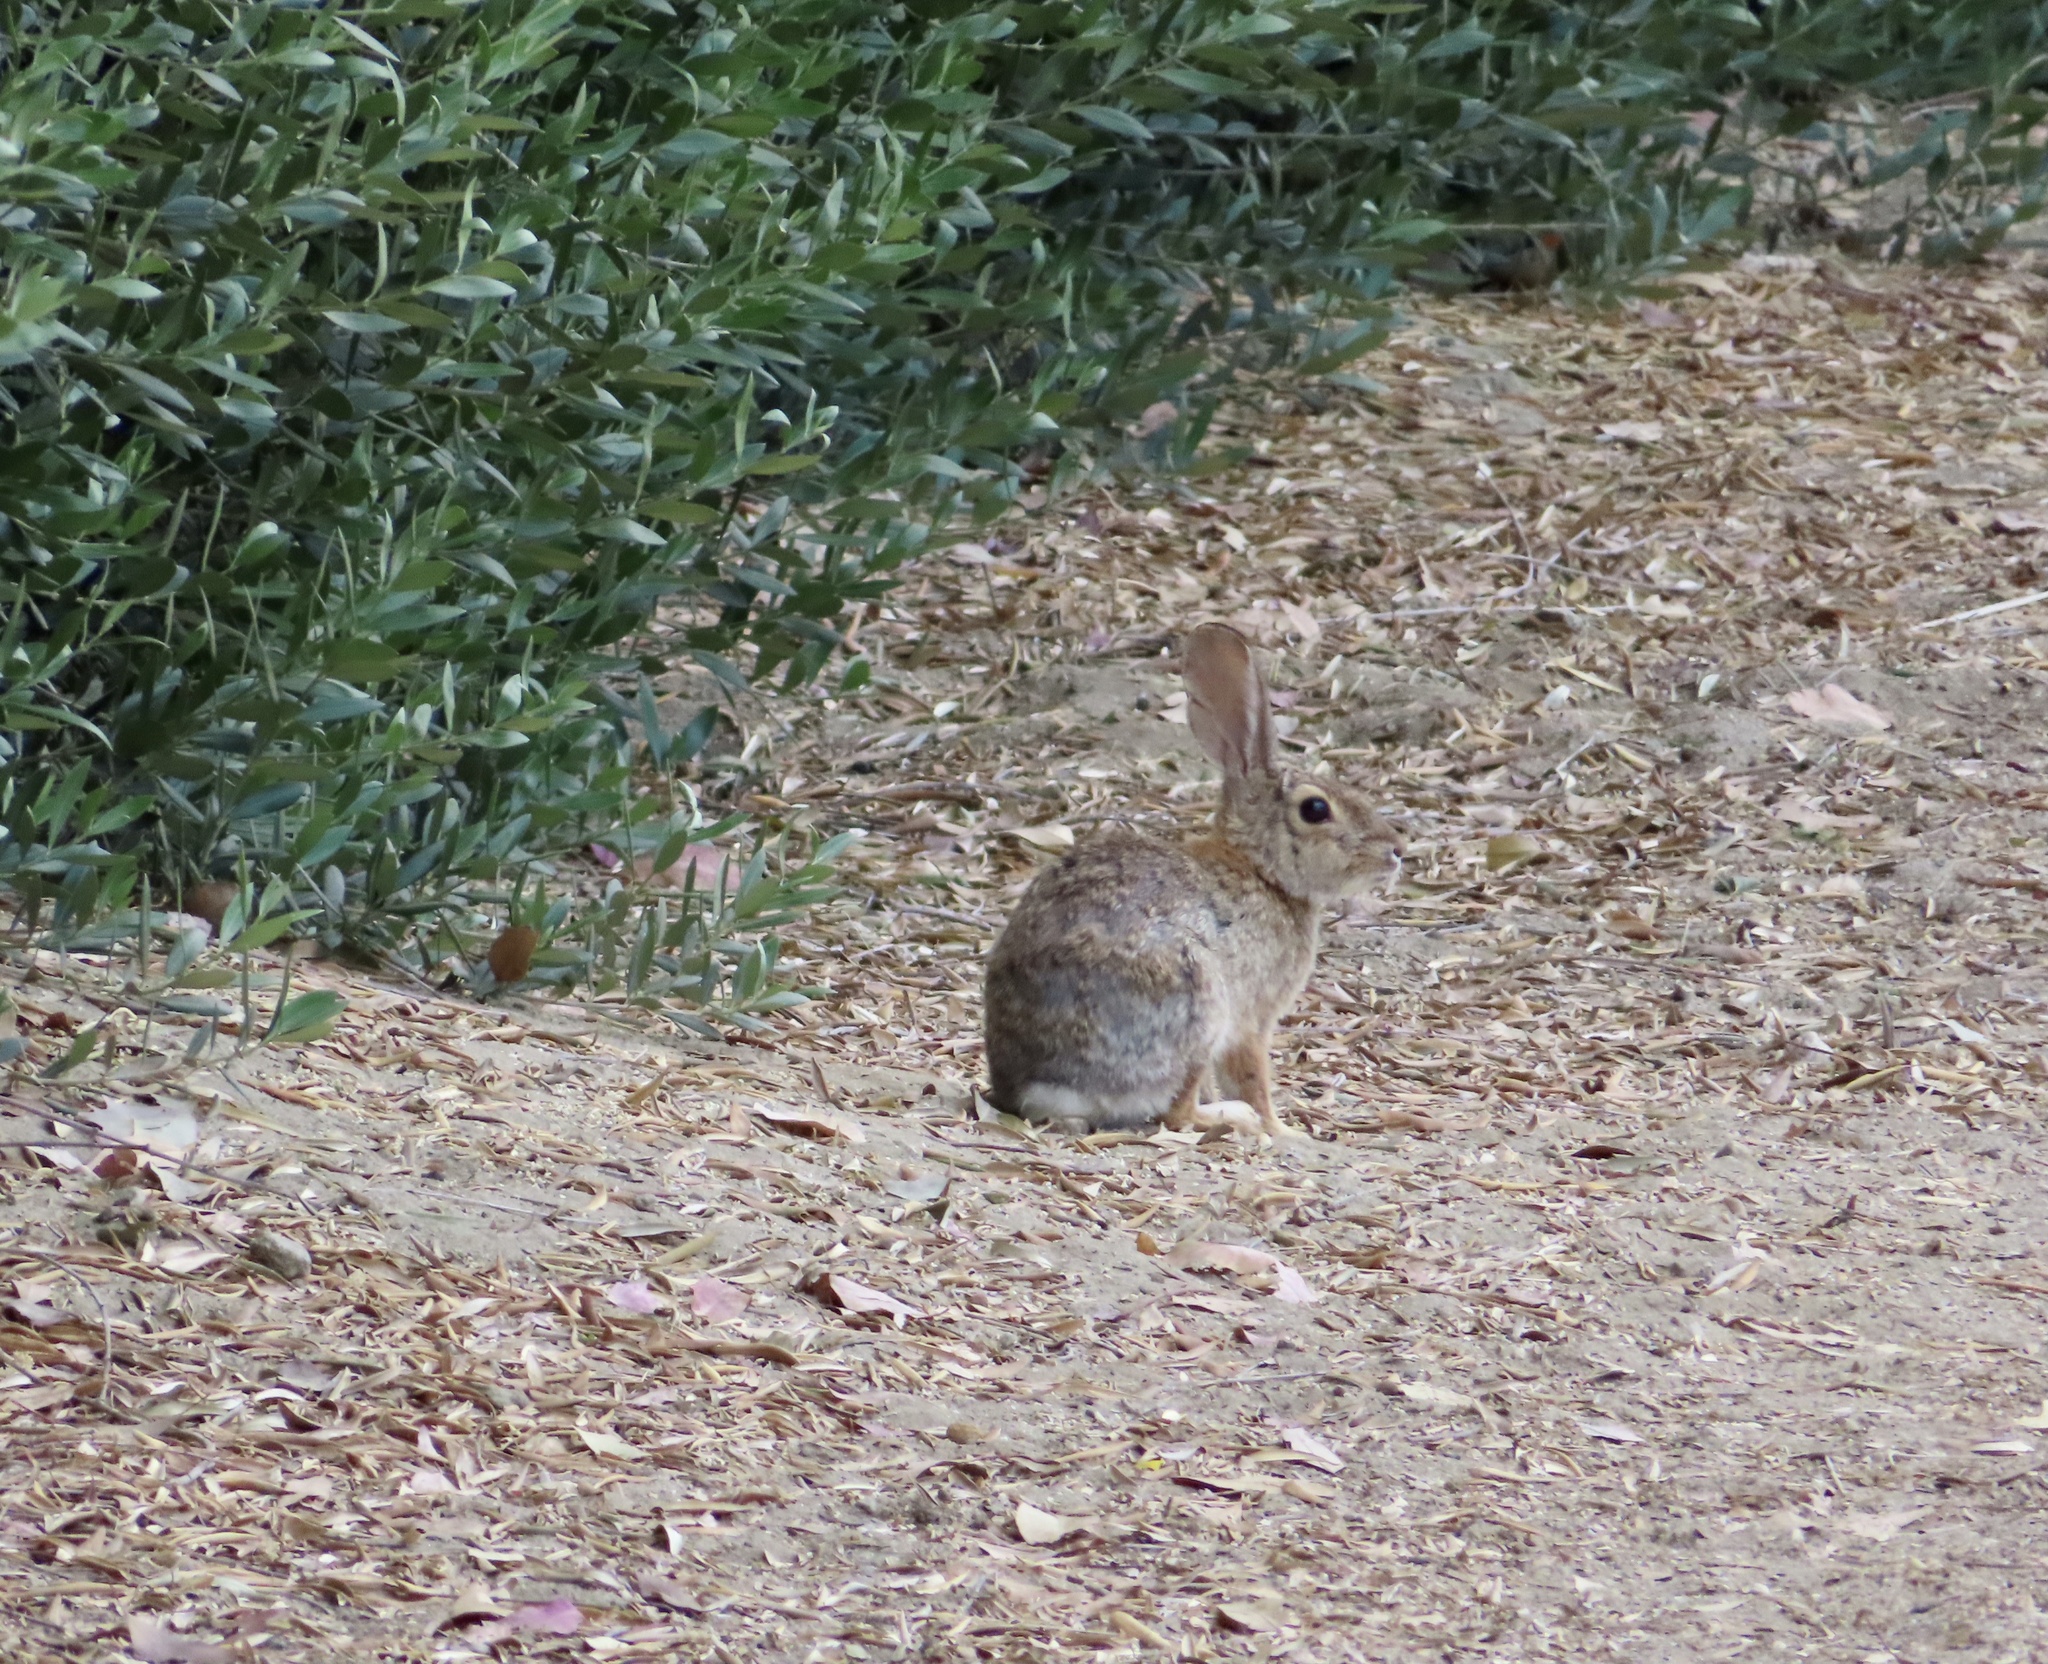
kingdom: Animalia
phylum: Chordata
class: Mammalia
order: Lagomorpha
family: Leporidae
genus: Sylvilagus
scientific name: Sylvilagus audubonii
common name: Desert cottontail
